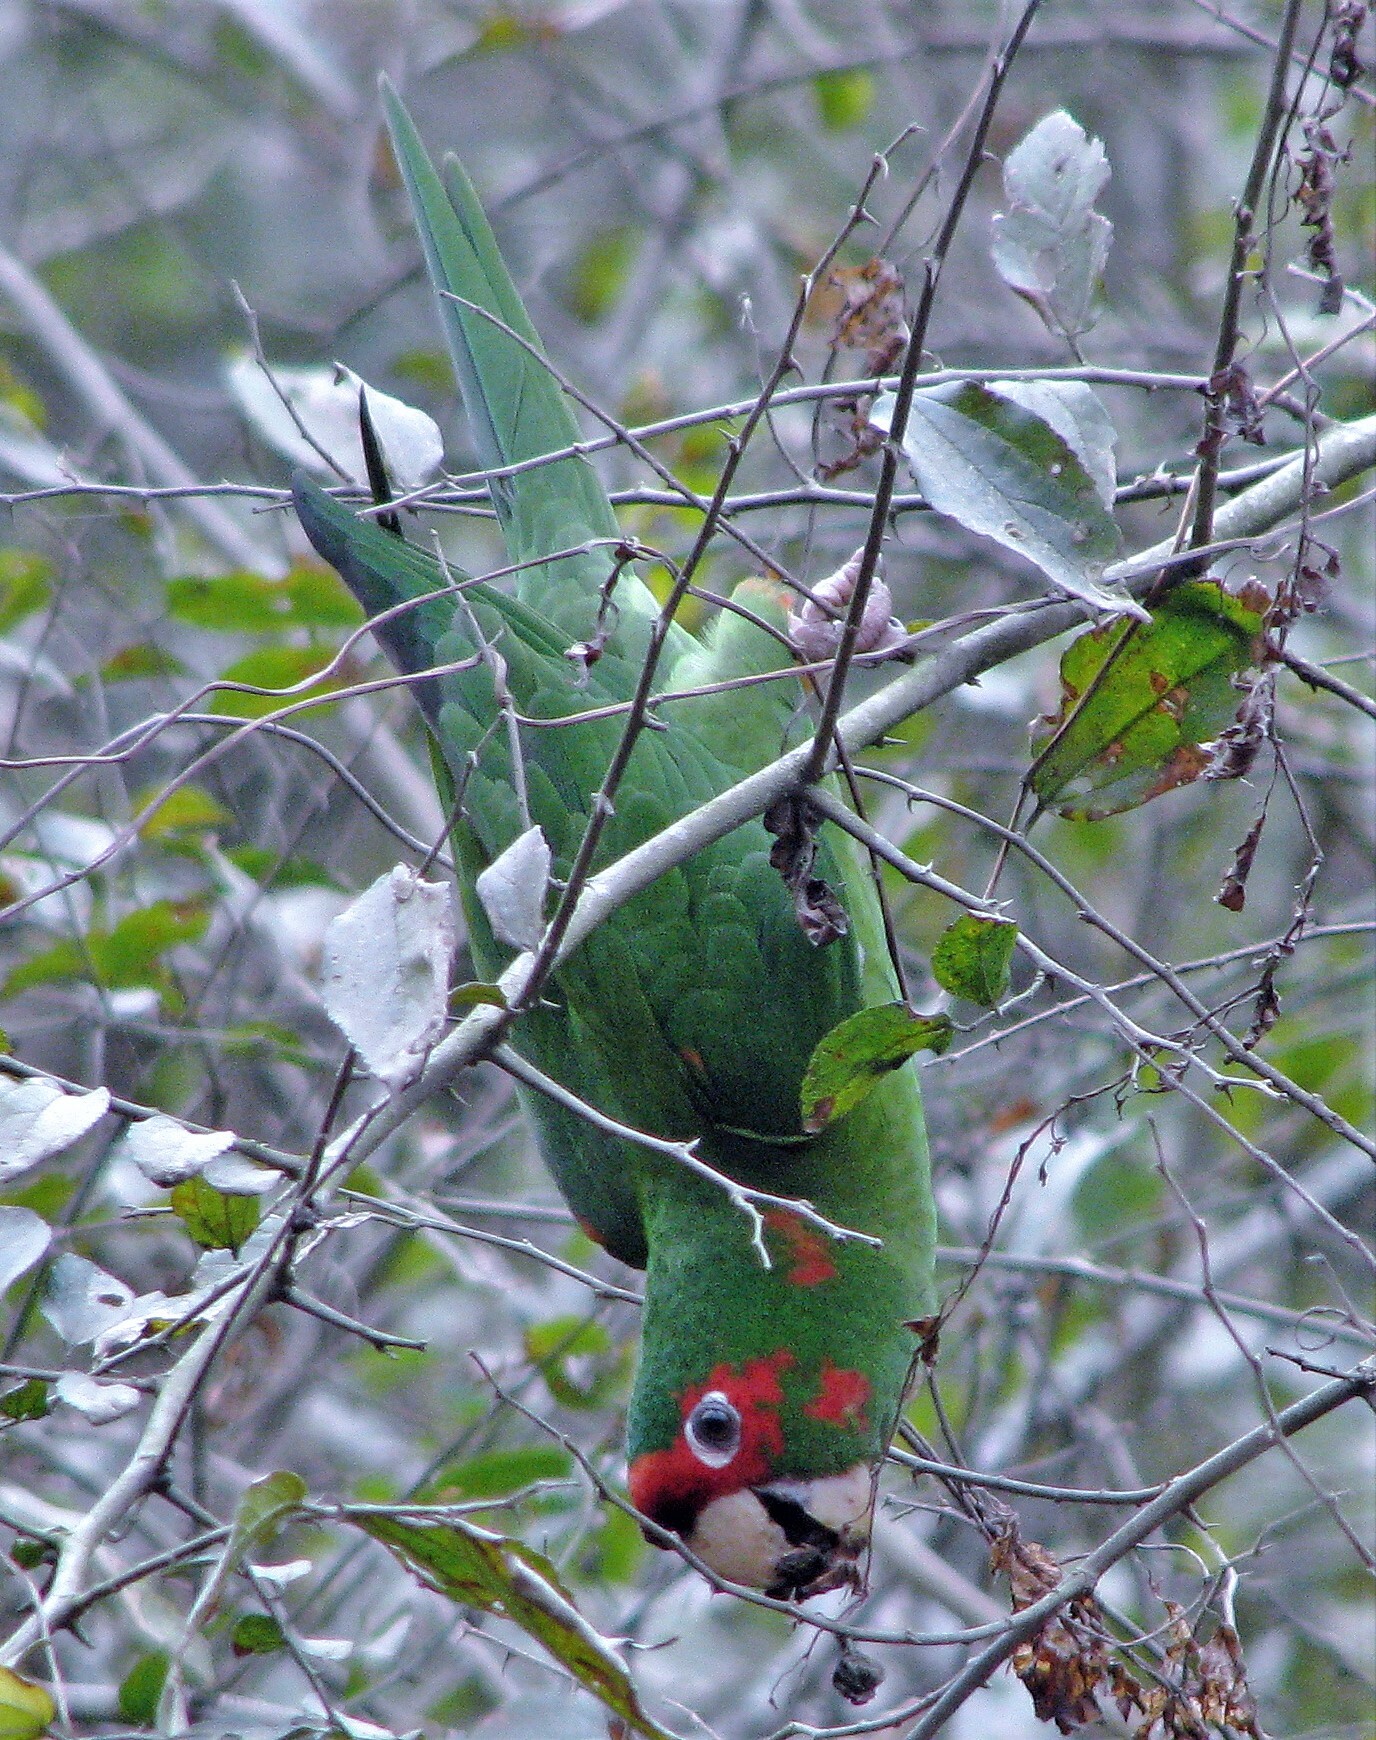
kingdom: Animalia
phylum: Chordata
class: Aves
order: Psittaciformes
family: Psittacidae
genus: Aratinga
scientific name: Aratinga mitrata
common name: Mitred parakeet
